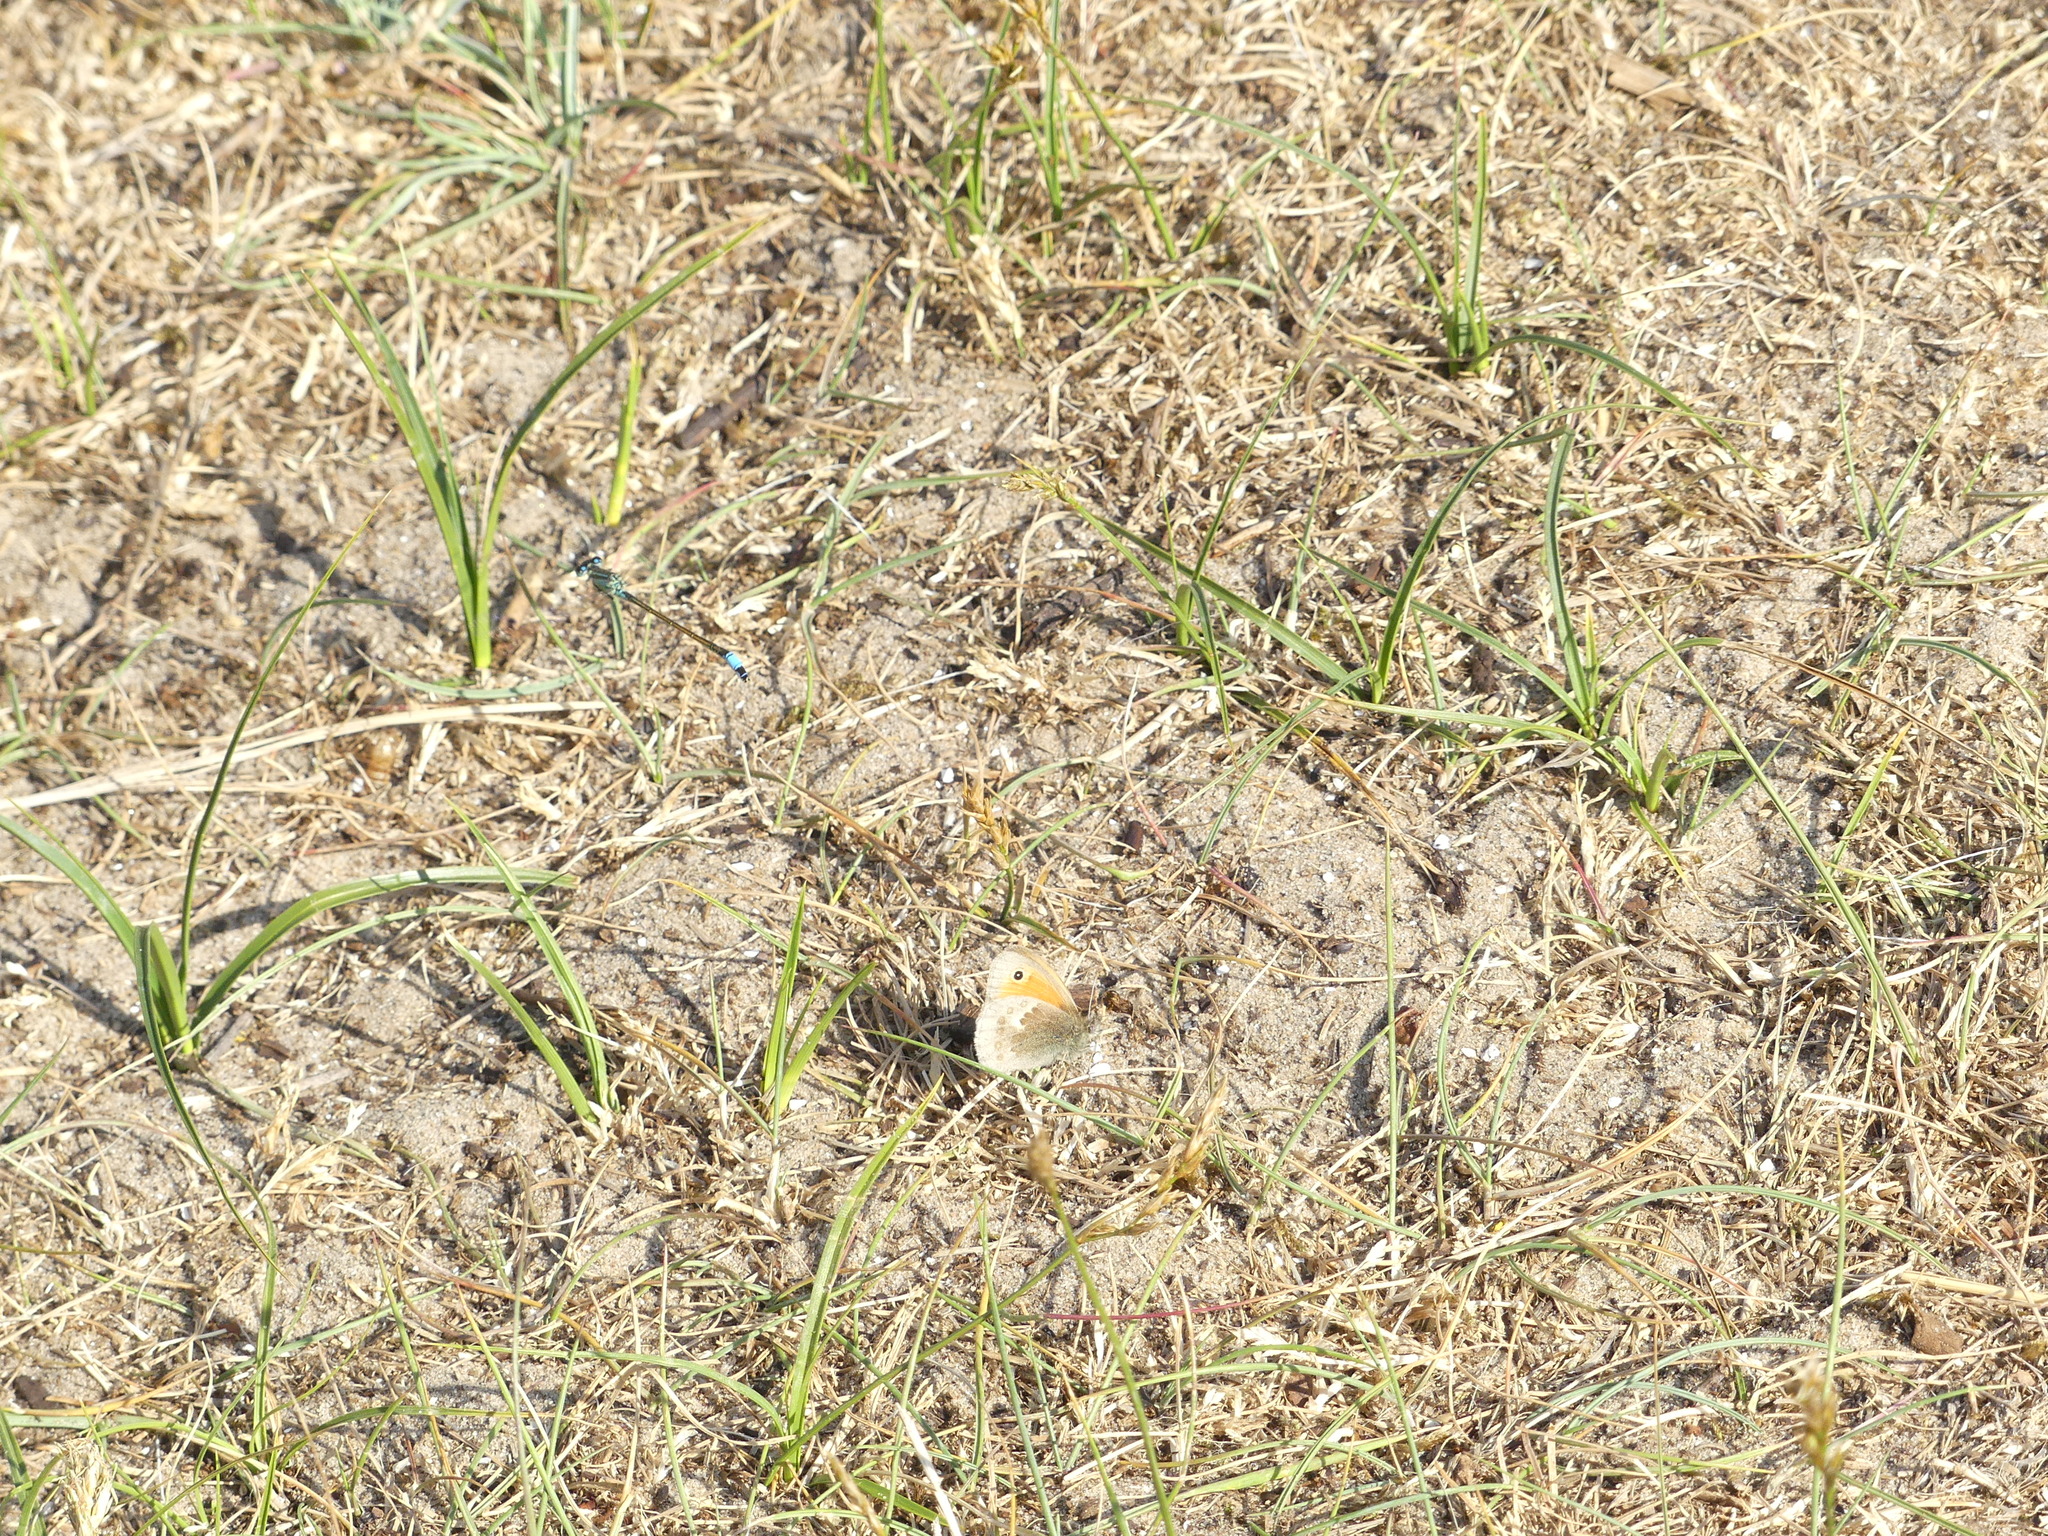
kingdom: Animalia
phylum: Arthropoda
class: Insecta
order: Lepidoptera
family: Nymphalidae
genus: Coenonympha
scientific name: Coenonympha pamphilus
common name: Small heath
